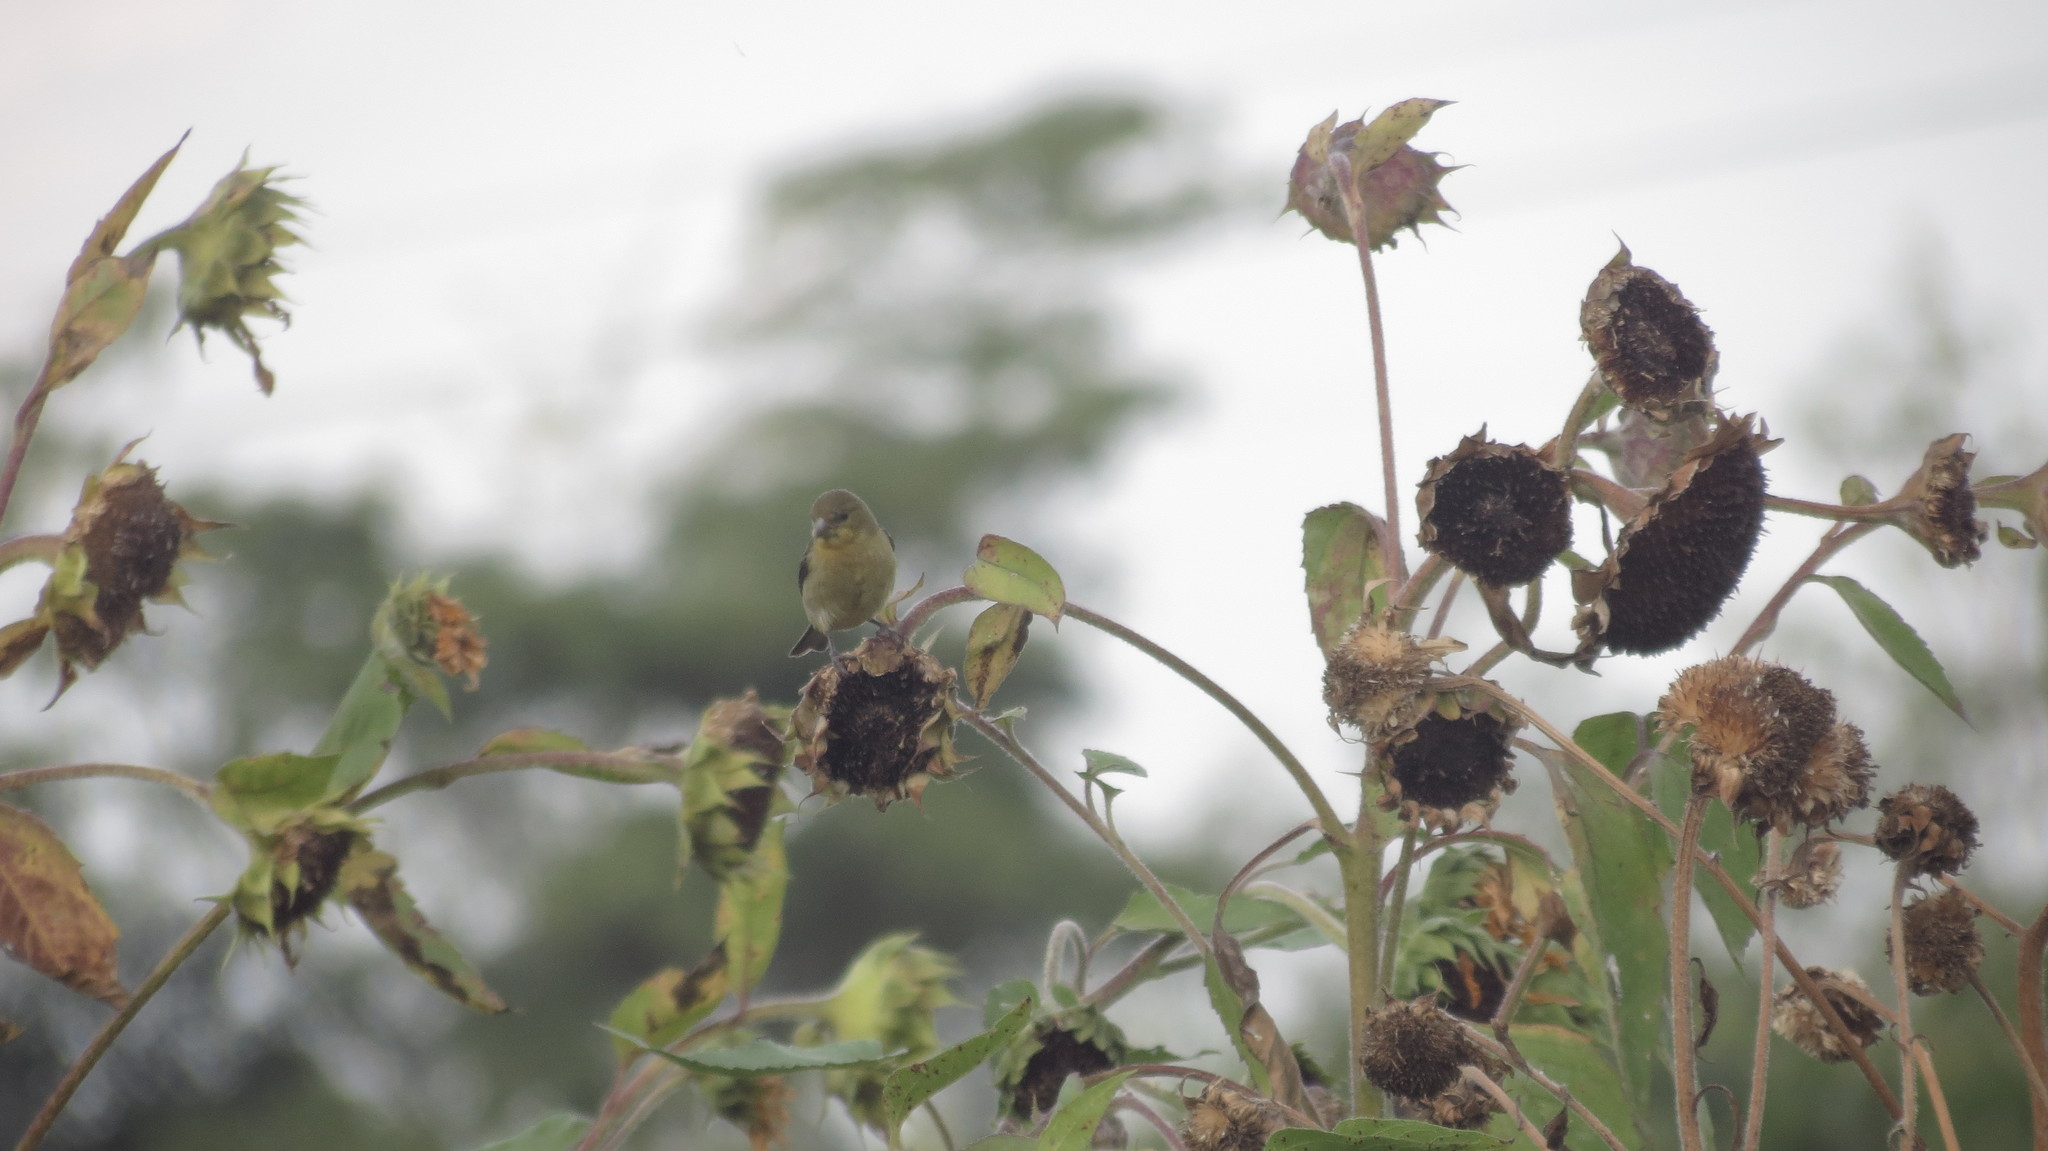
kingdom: Animalia
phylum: Chordata
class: Aves
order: Passeriformes
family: Fringillidae
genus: Spinus
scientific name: Spinus psaltria
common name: Lesser goldfinch
